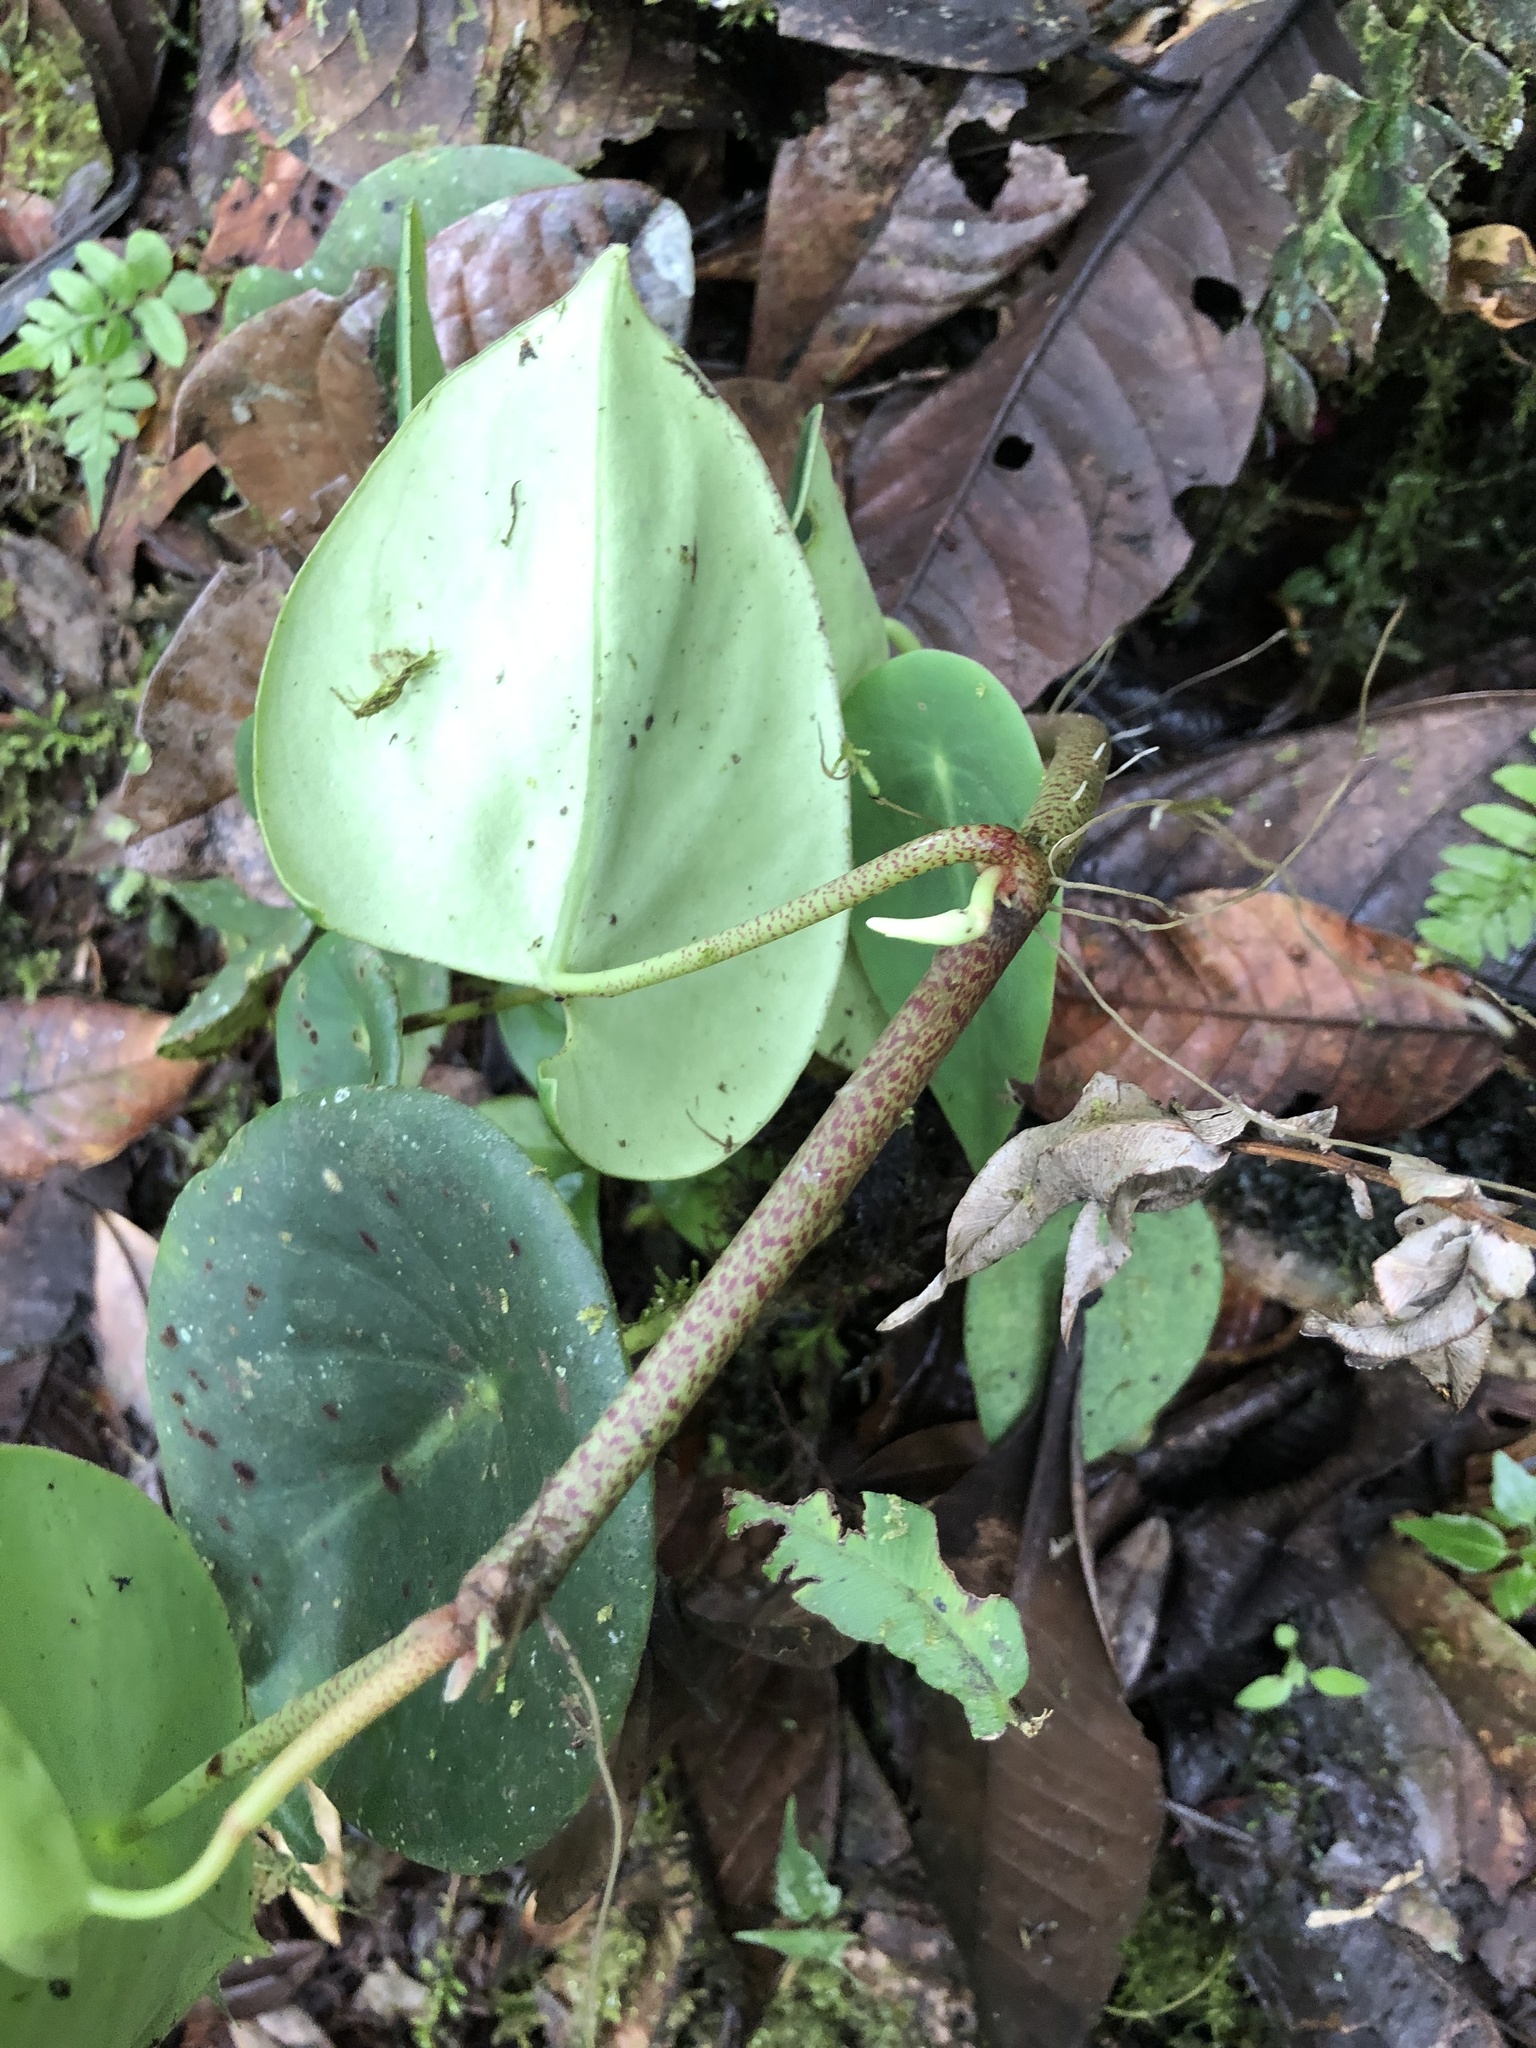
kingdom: Plantae
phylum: Tracheophyta
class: Magnoliopsida
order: Piperales
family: Piperaceae
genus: Peperomia
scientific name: Peperomia choroniana
